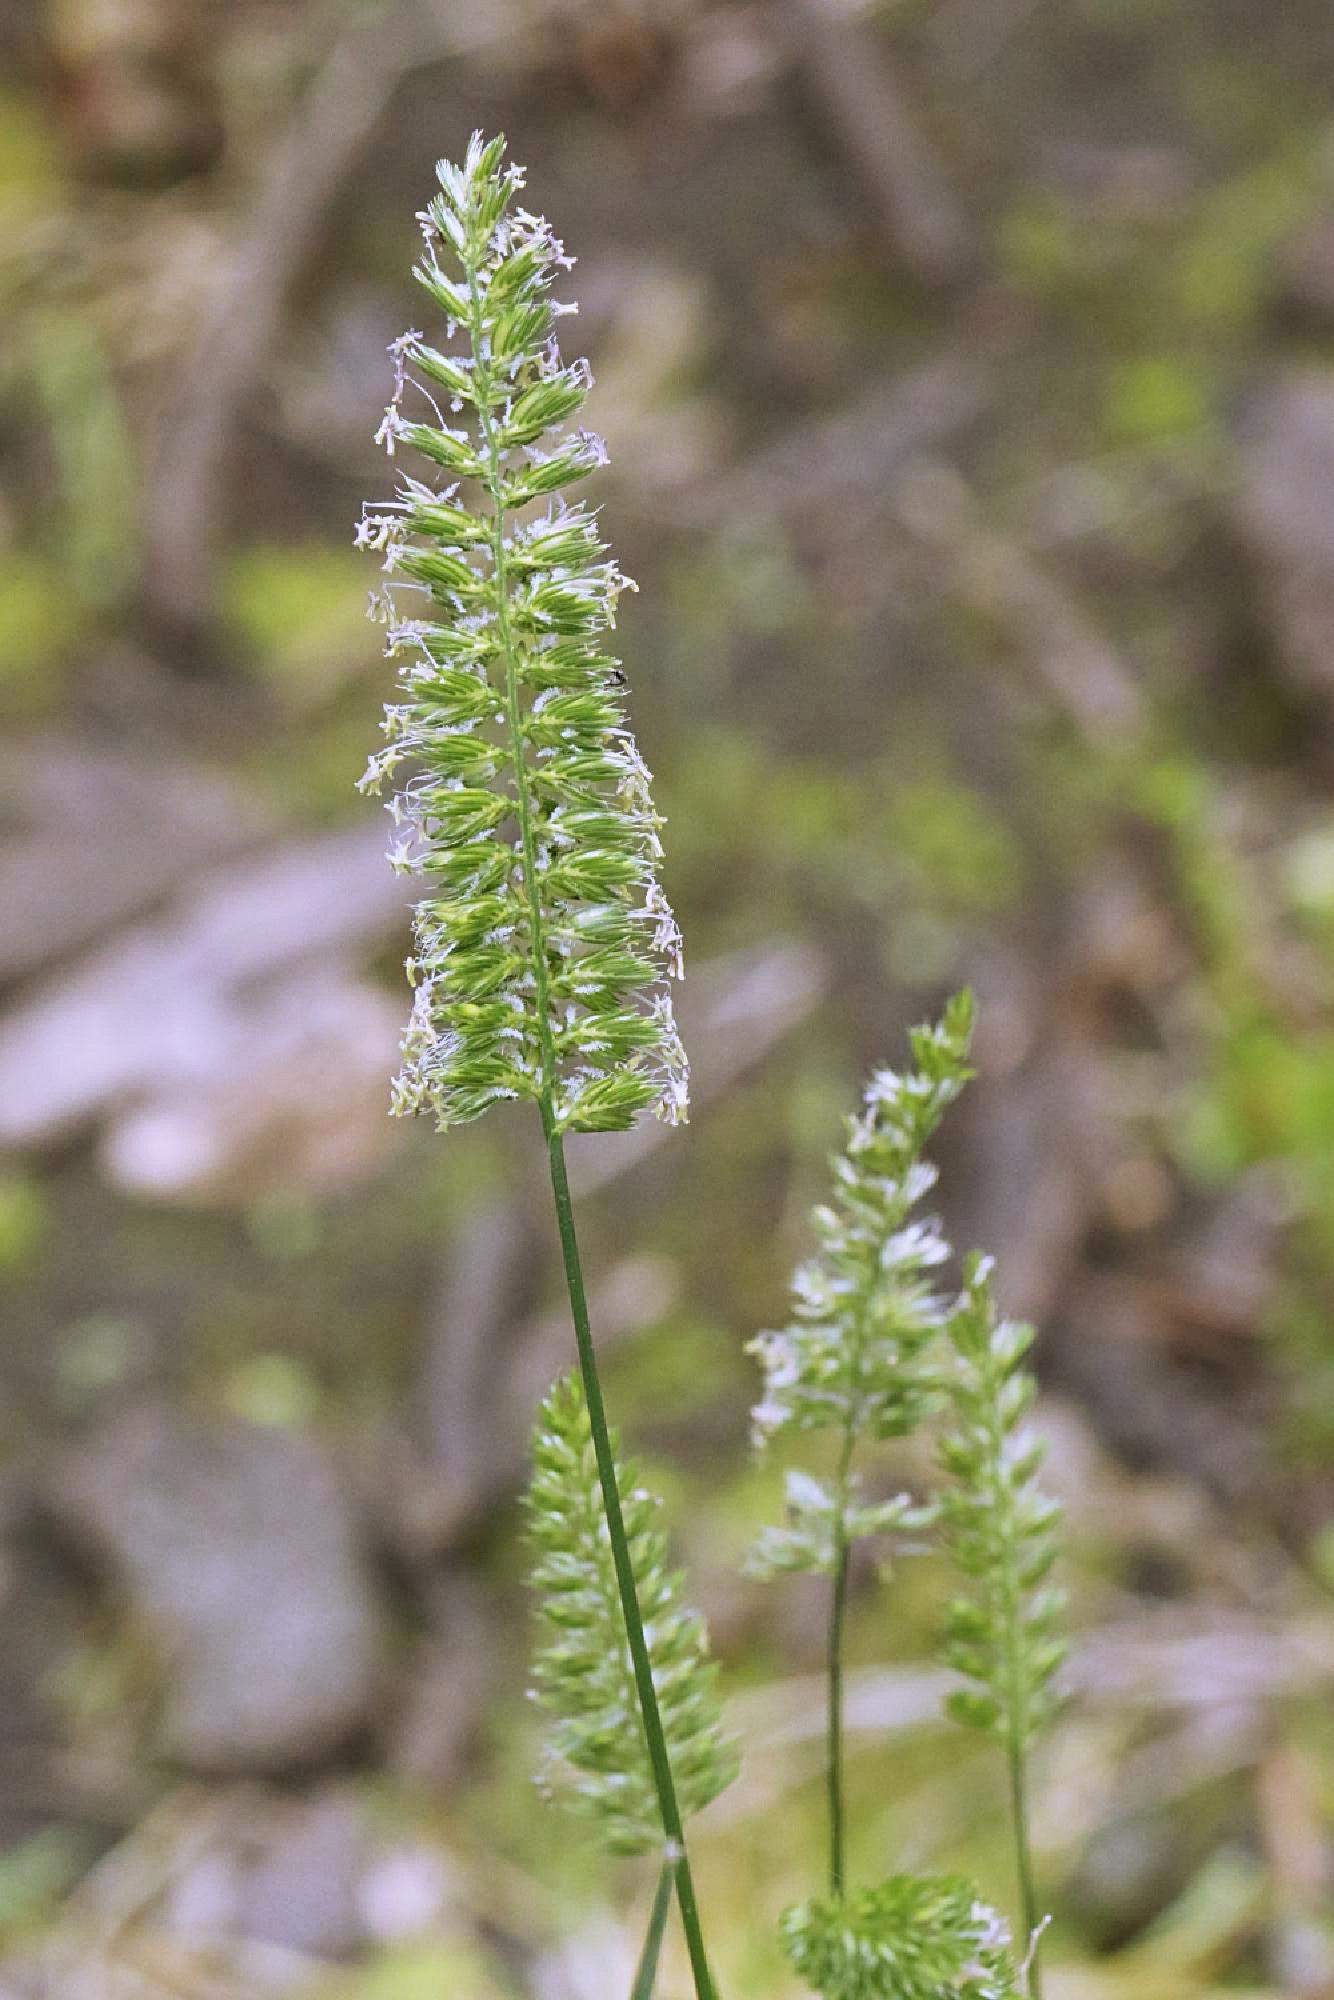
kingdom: Plantae
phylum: Tracheophyta
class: Liliopsida
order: Poales
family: Poaceae
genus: Cynosurus
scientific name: Cynosurus cristatus
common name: Crested dog's-tail
